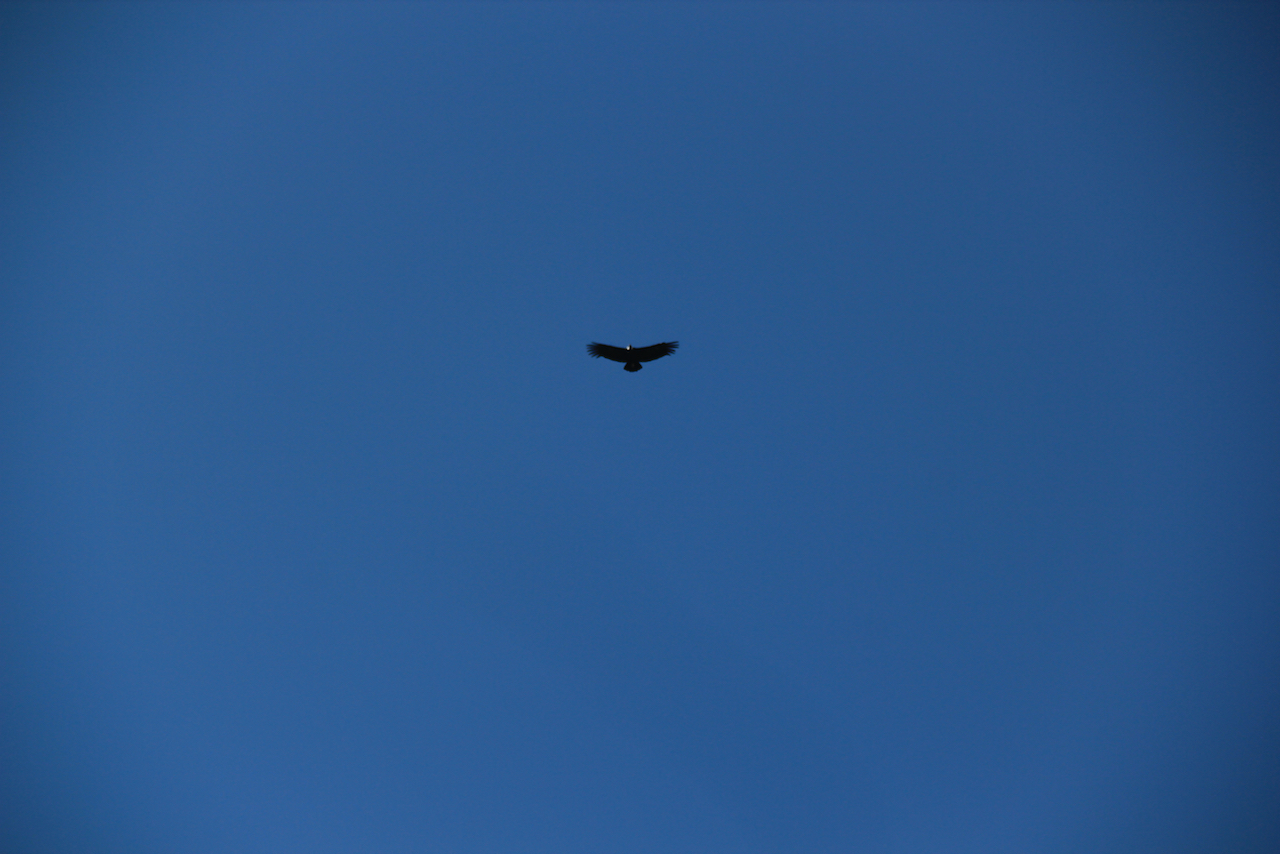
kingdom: Animalia
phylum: Chordata
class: Aves
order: Accipitriformes
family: Cathartidae
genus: Vultur
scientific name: Vultur gryphus
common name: Andean condor
